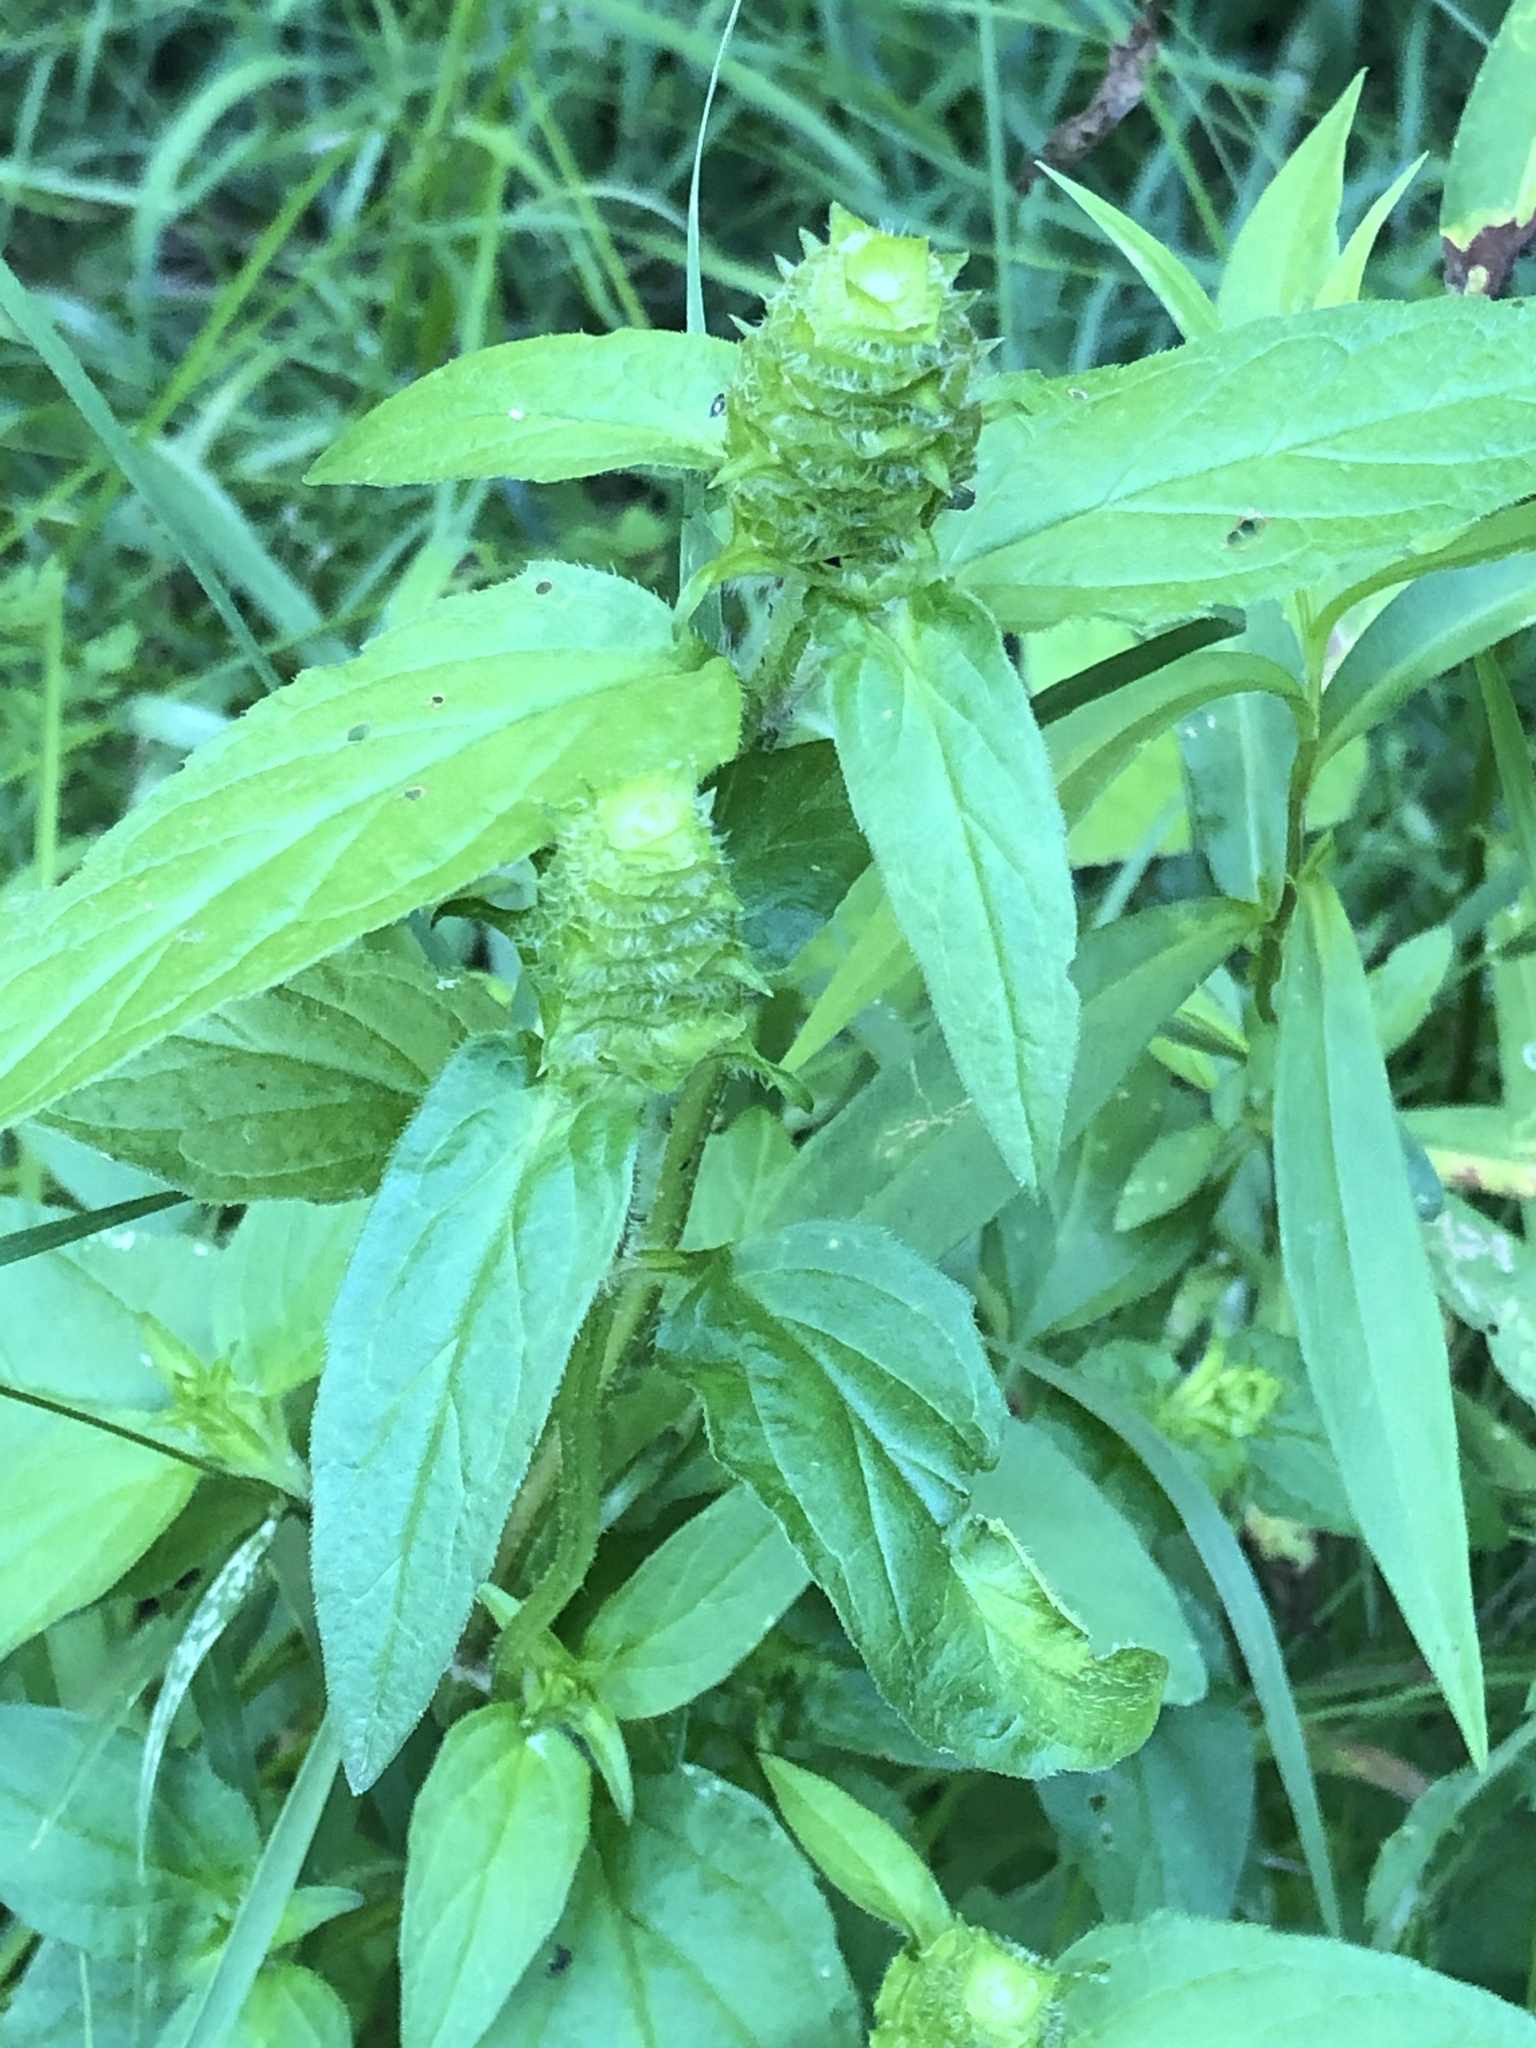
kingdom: Plantae
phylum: Tracheophyta
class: Magnoliopsida
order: Lamiales
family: Lamiaceae
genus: Prunella
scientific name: Prunella vulgaris
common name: Heal-all
